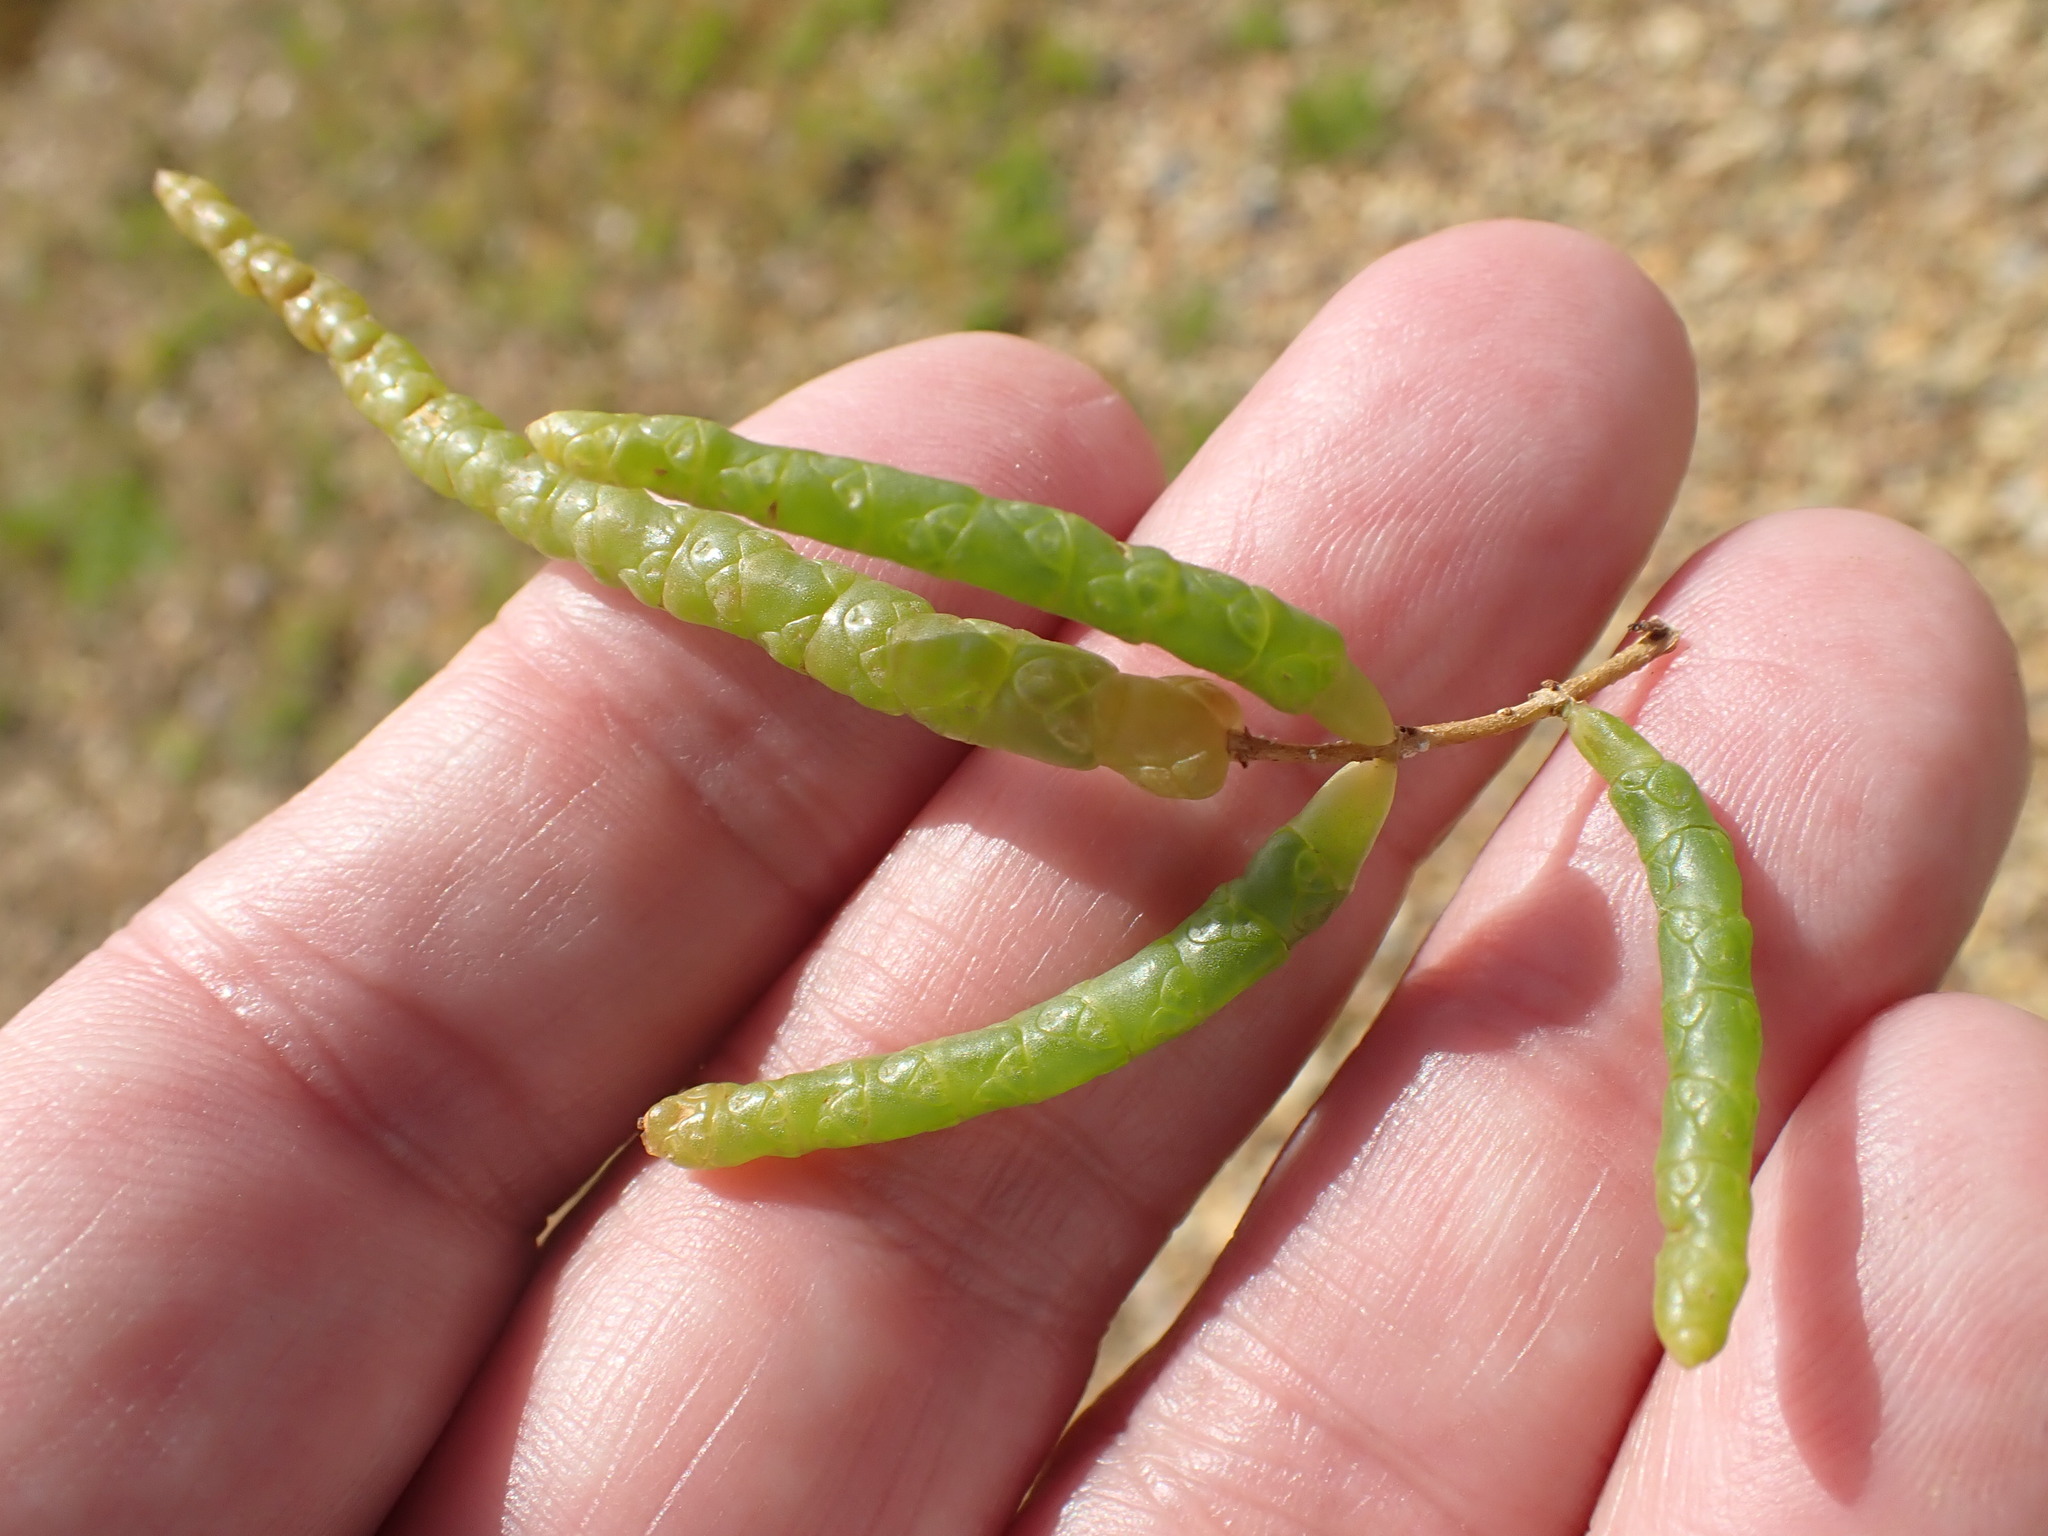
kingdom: Plantae
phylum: Tracheophyta
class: Magnoliopsida
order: Caryophyllales
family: Amaranthaceae
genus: Salicornia
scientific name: Salicornia procumbens
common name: Long-spiked glasswort
